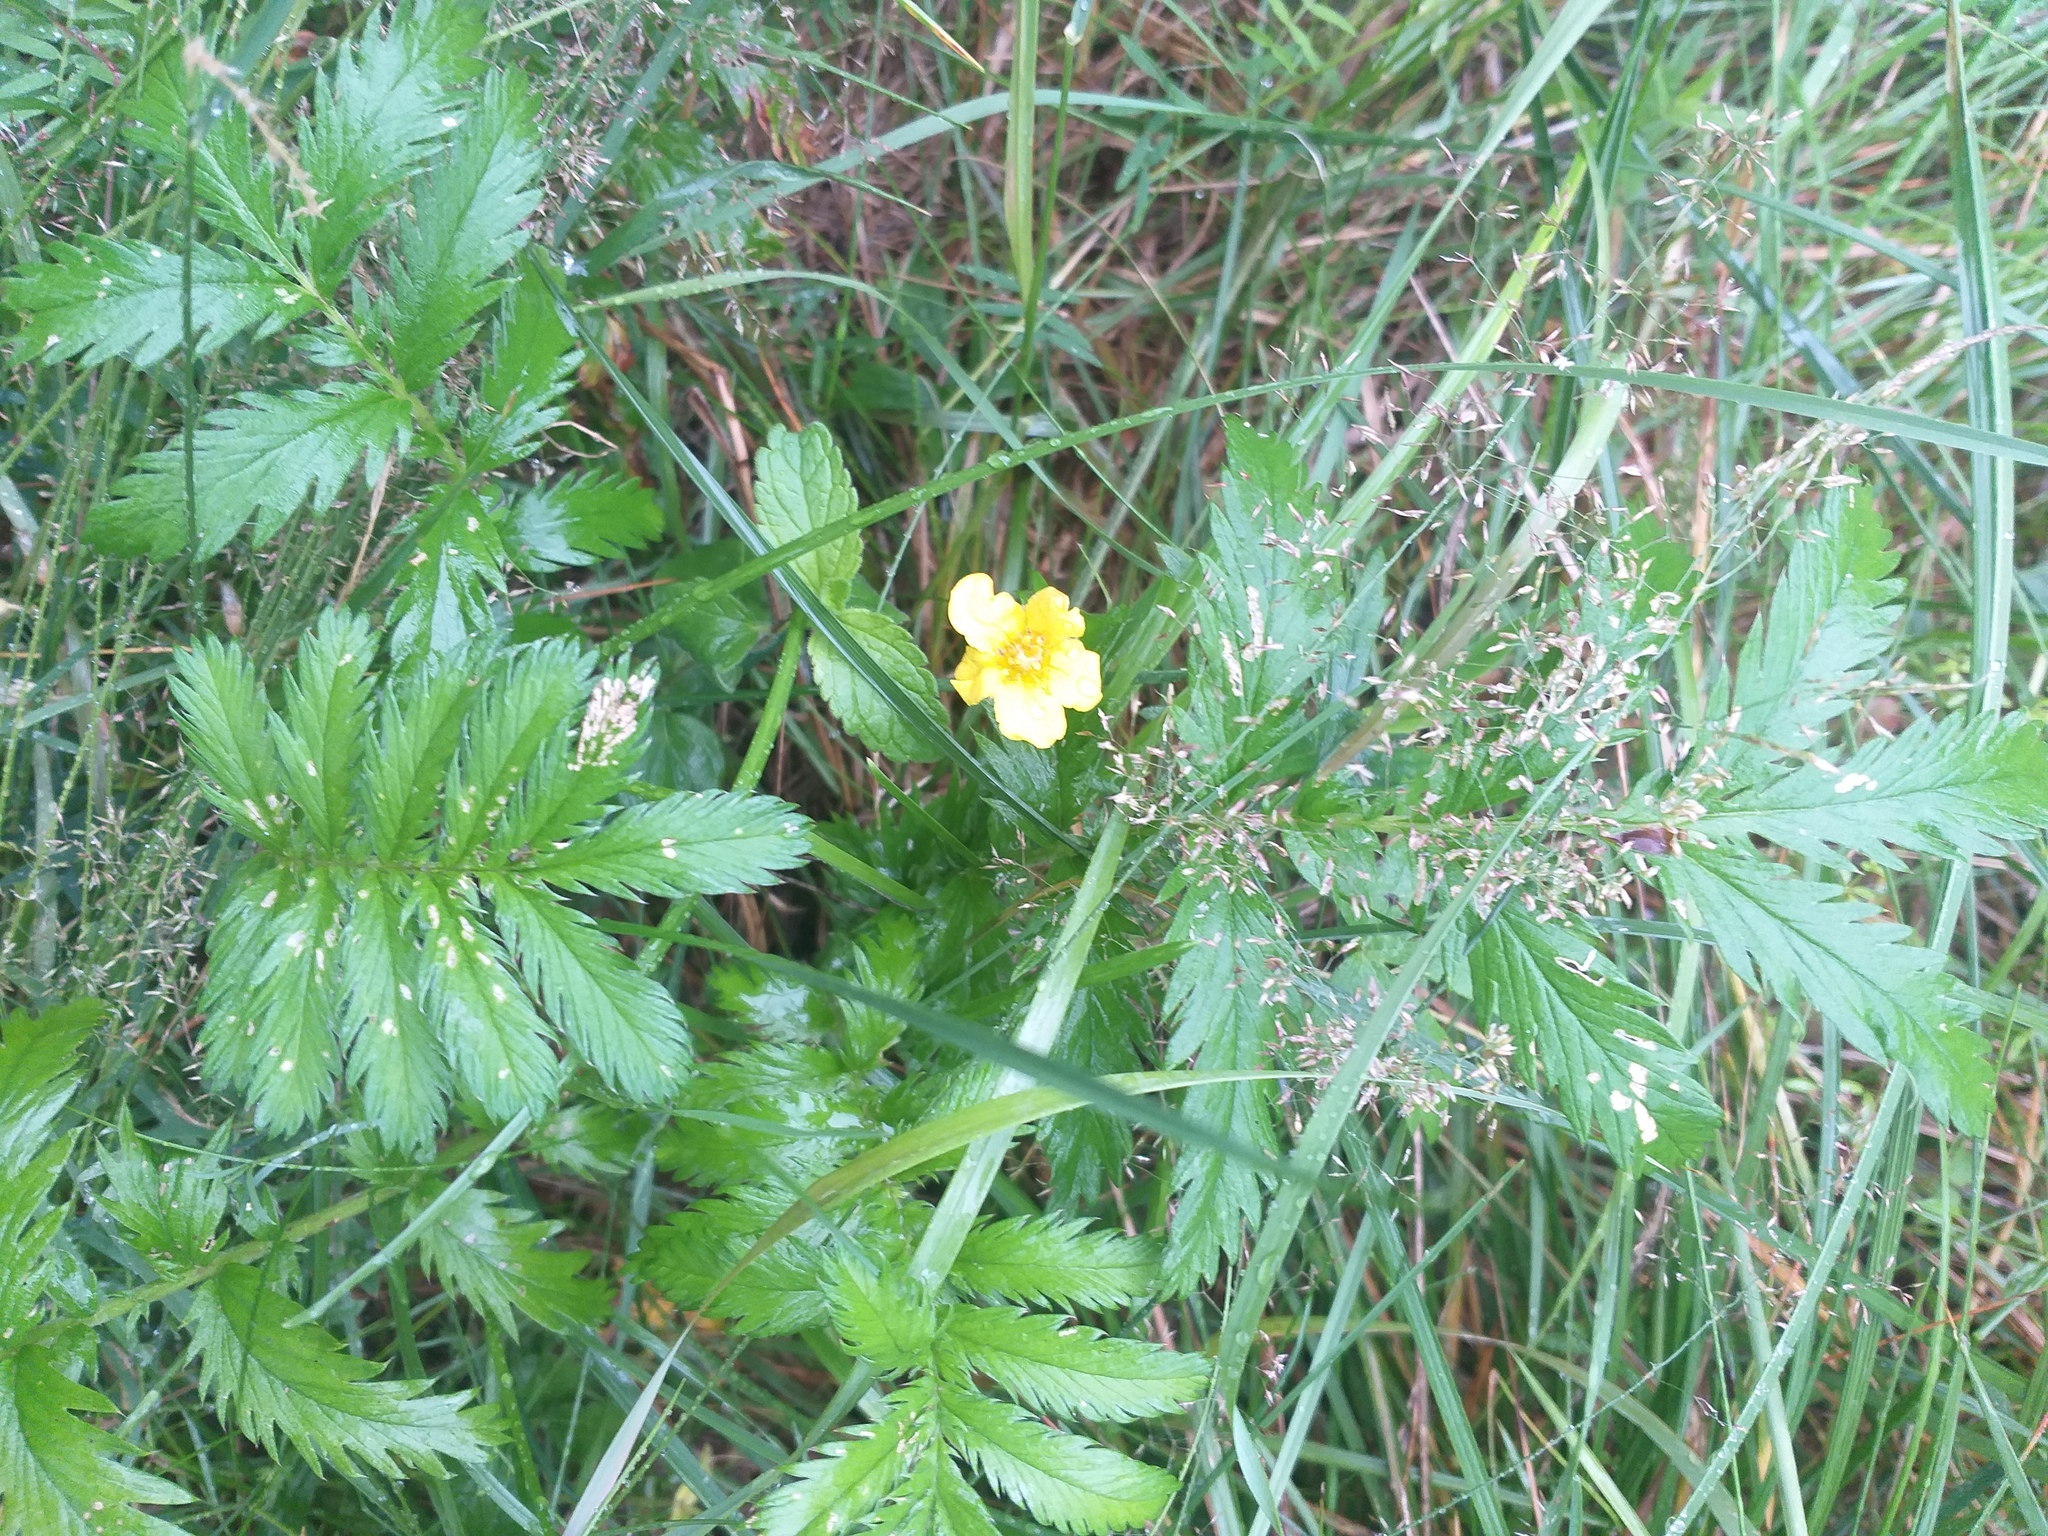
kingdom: Plantae
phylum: Tracheophyta
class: Magnoliopsida
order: Rosales
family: Rosaceae
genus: Argentina
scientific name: Argentina anserina
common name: Common silverweed
